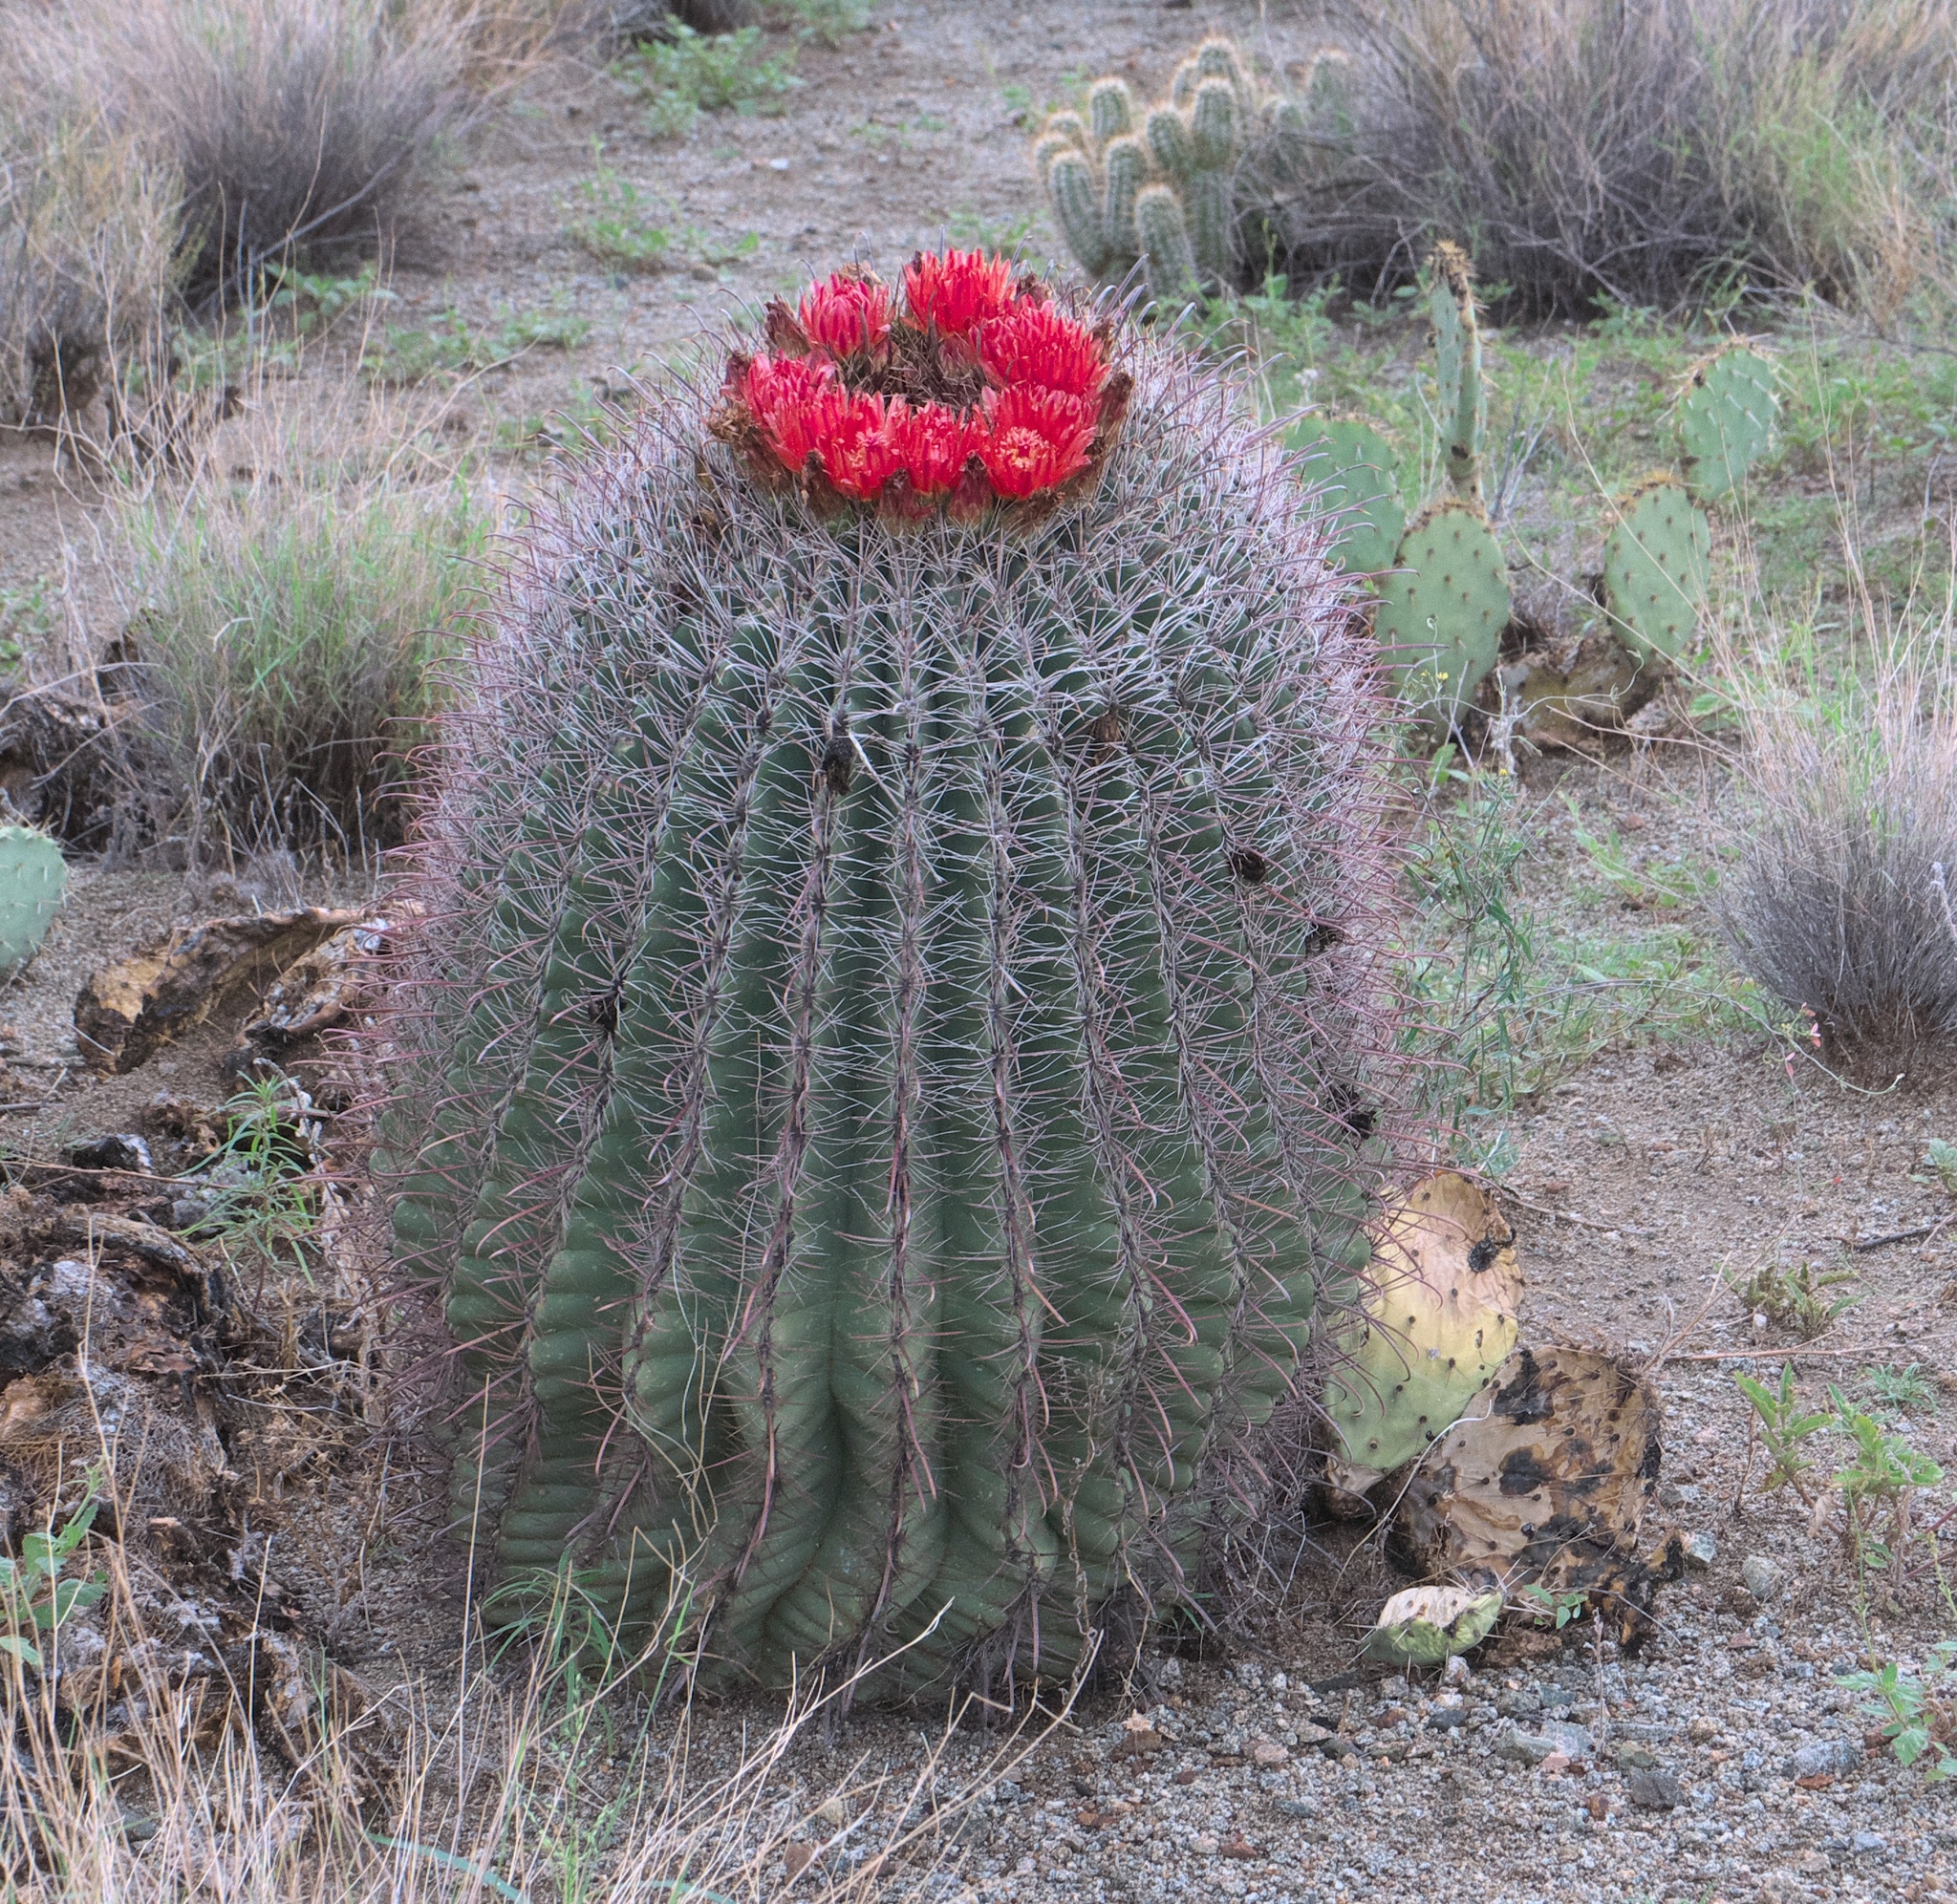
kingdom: Plantae
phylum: Tracheophyta
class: Magnoliopsida
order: Caryophyllales
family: Cactaceae
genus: Ferocactus
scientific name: Ferocactus wislizeni
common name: Candy barrel cactus
